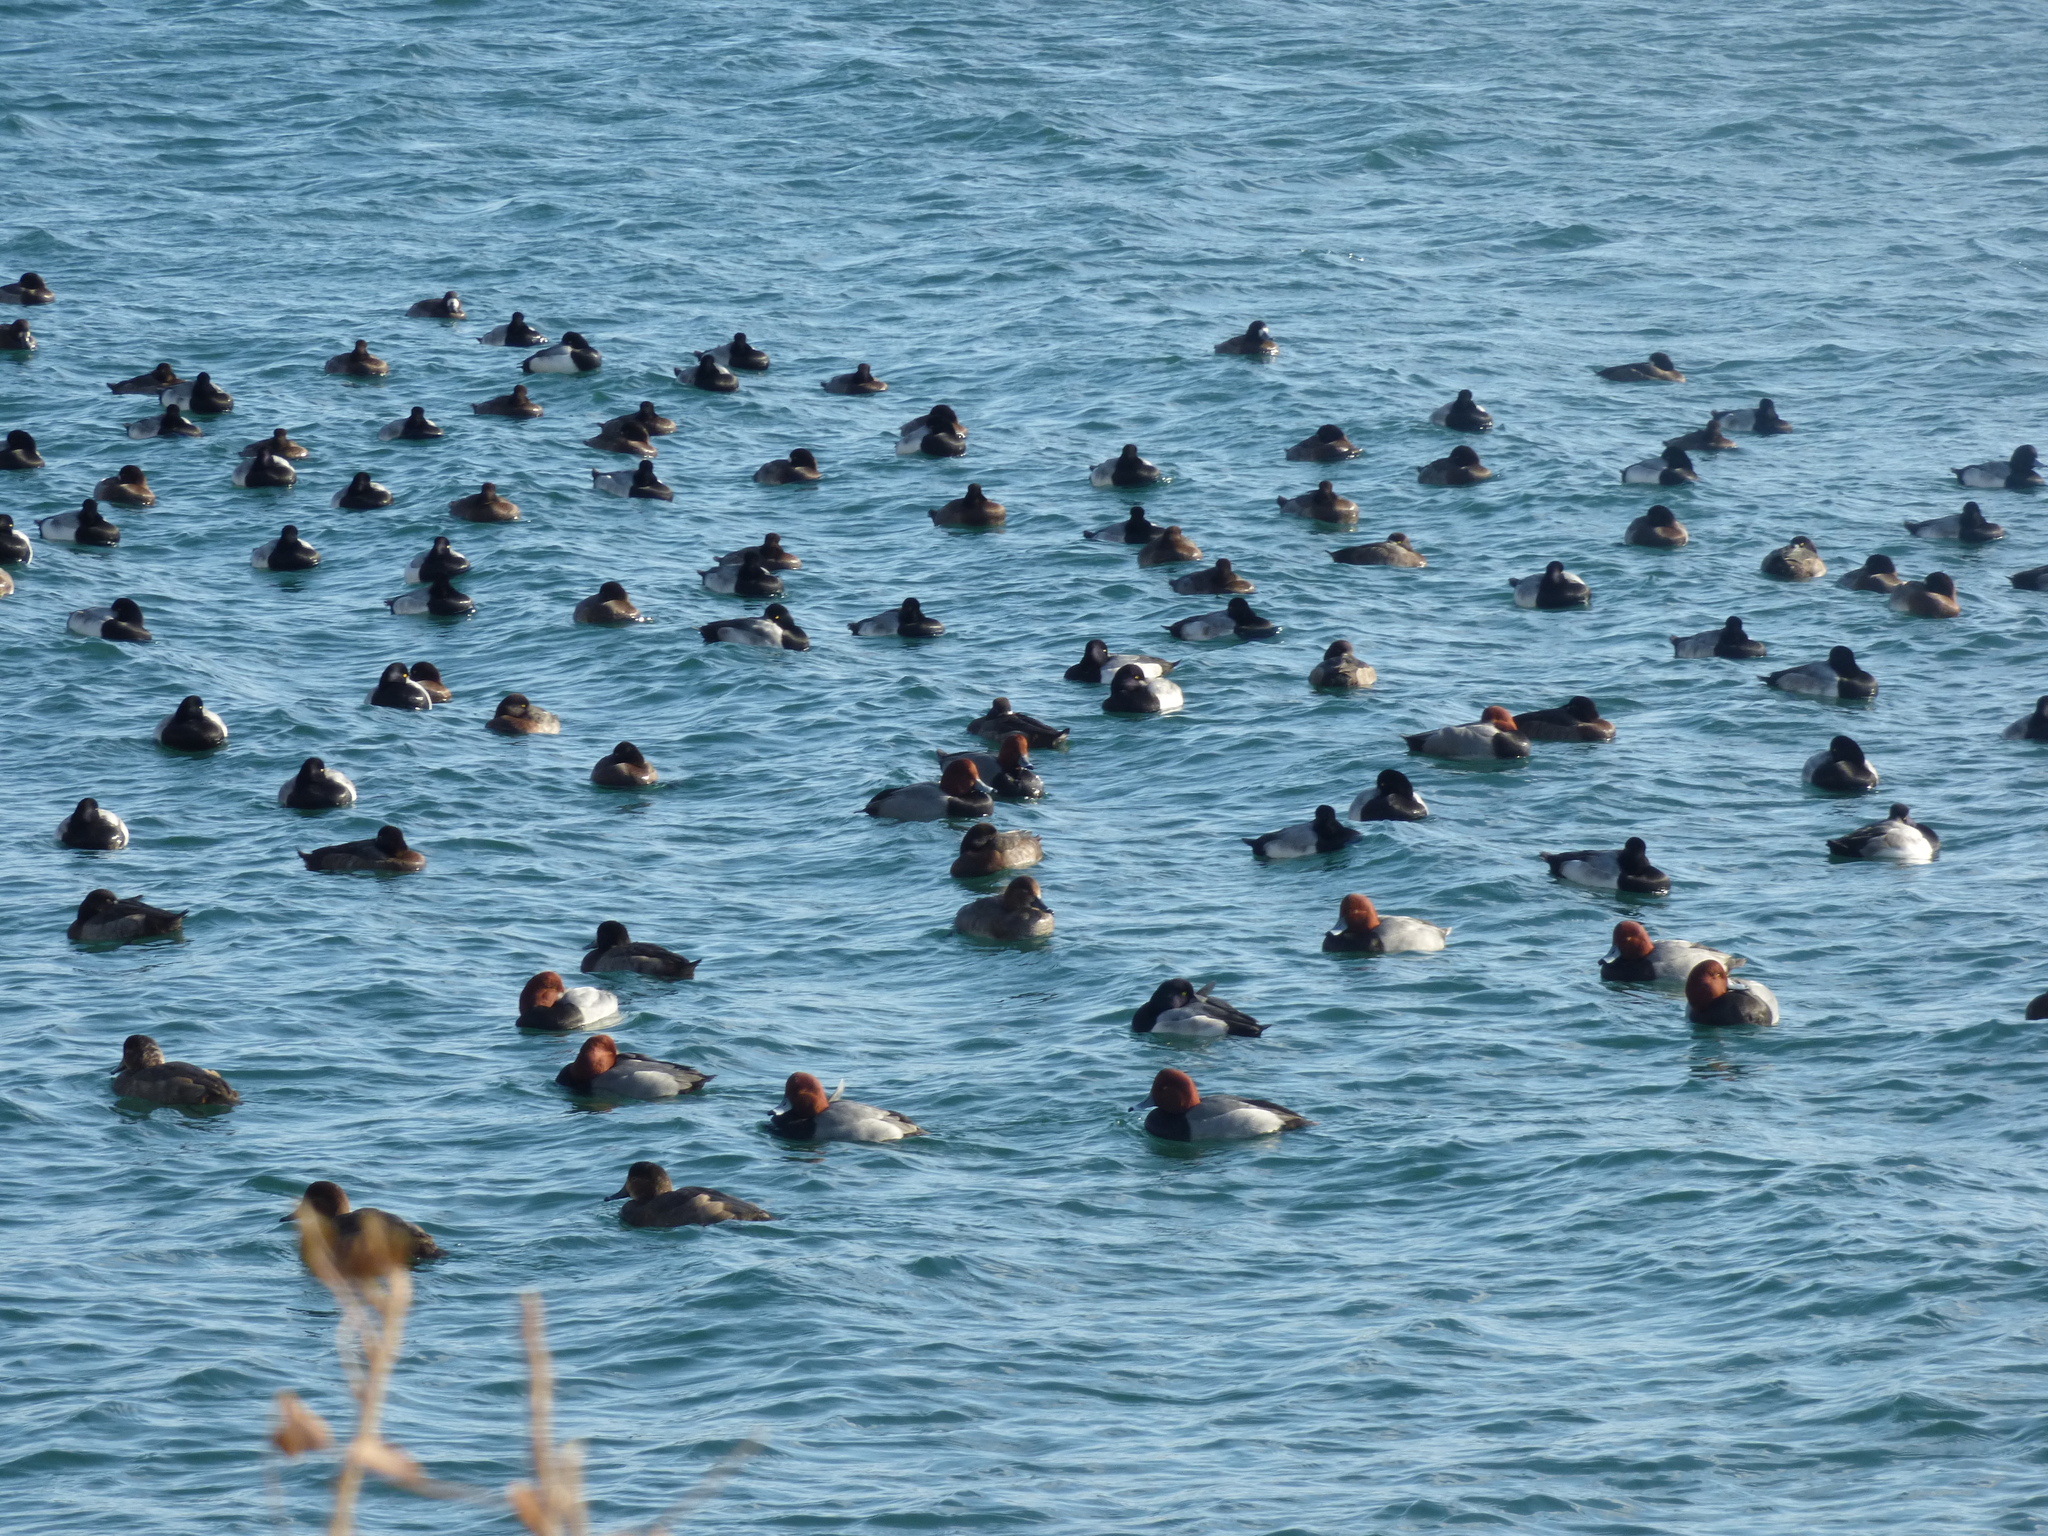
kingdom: Animalia
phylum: Chordata
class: Aves
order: Anseriformes
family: Anatidae
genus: Aythya
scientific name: Aythya marila
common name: Greater scaup
